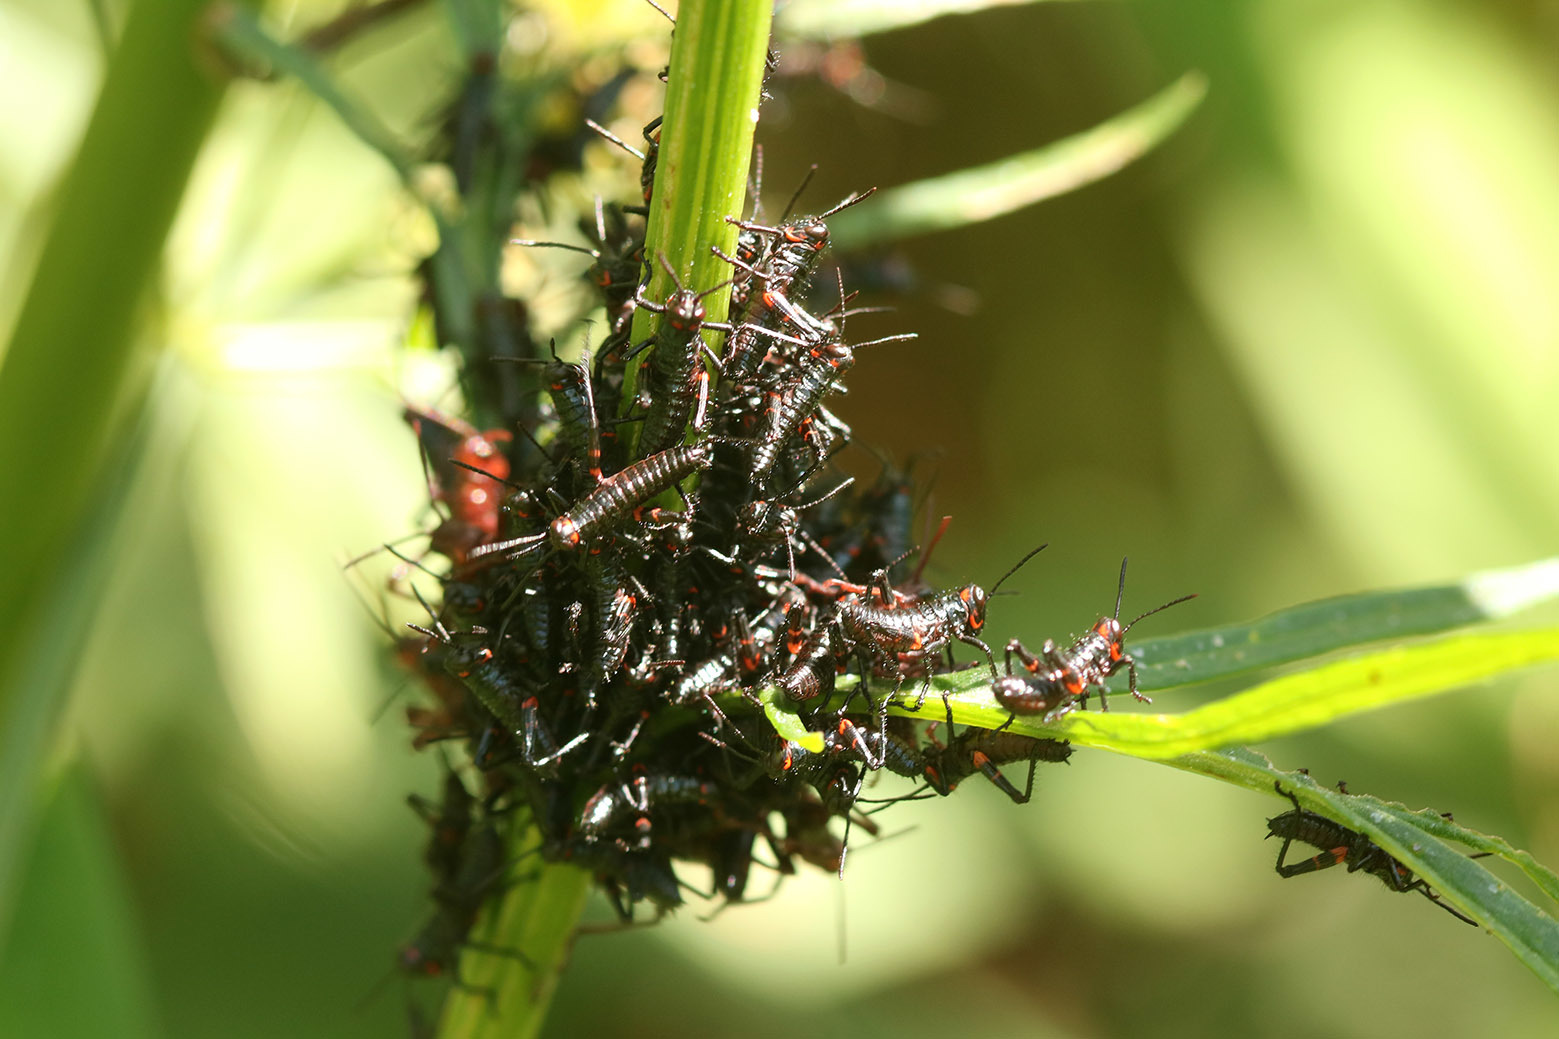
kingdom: Animalia
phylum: Arthropoda
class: Insecta
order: Orthoptera
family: Romaleidae
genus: Chromacris
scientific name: Chromacris speciosa
